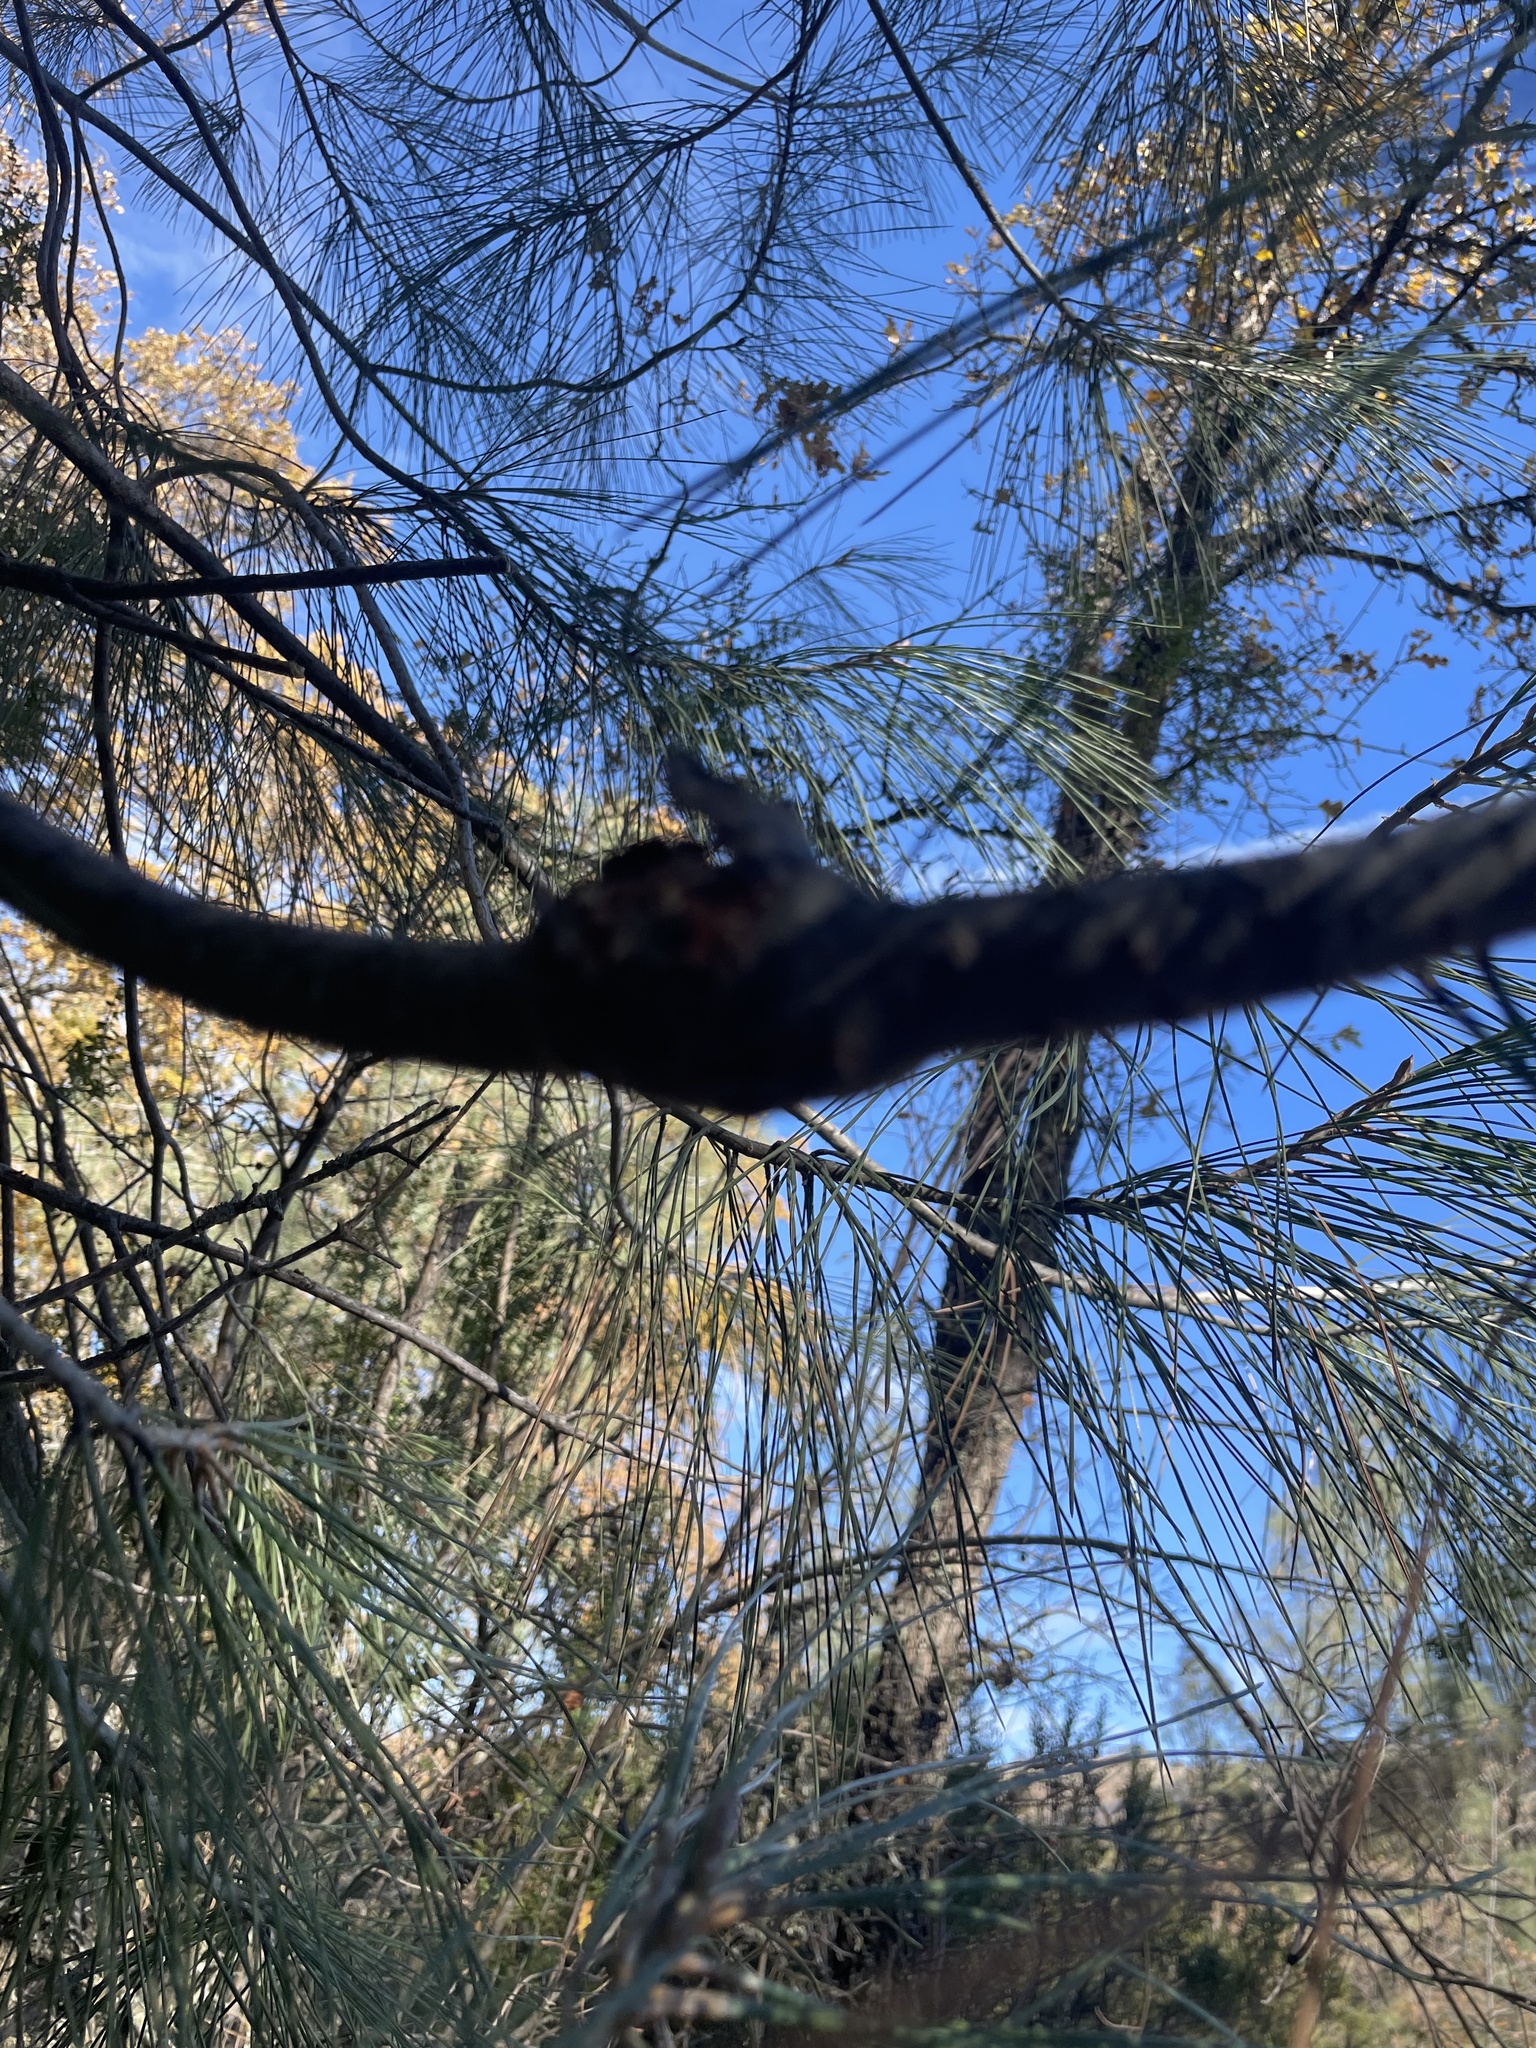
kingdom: Fungi
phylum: Basidiomycota
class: Pucciniomycetes
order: Pucciniales
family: Cronartiaceae
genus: Cronartium
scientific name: Cronartium harknessii
